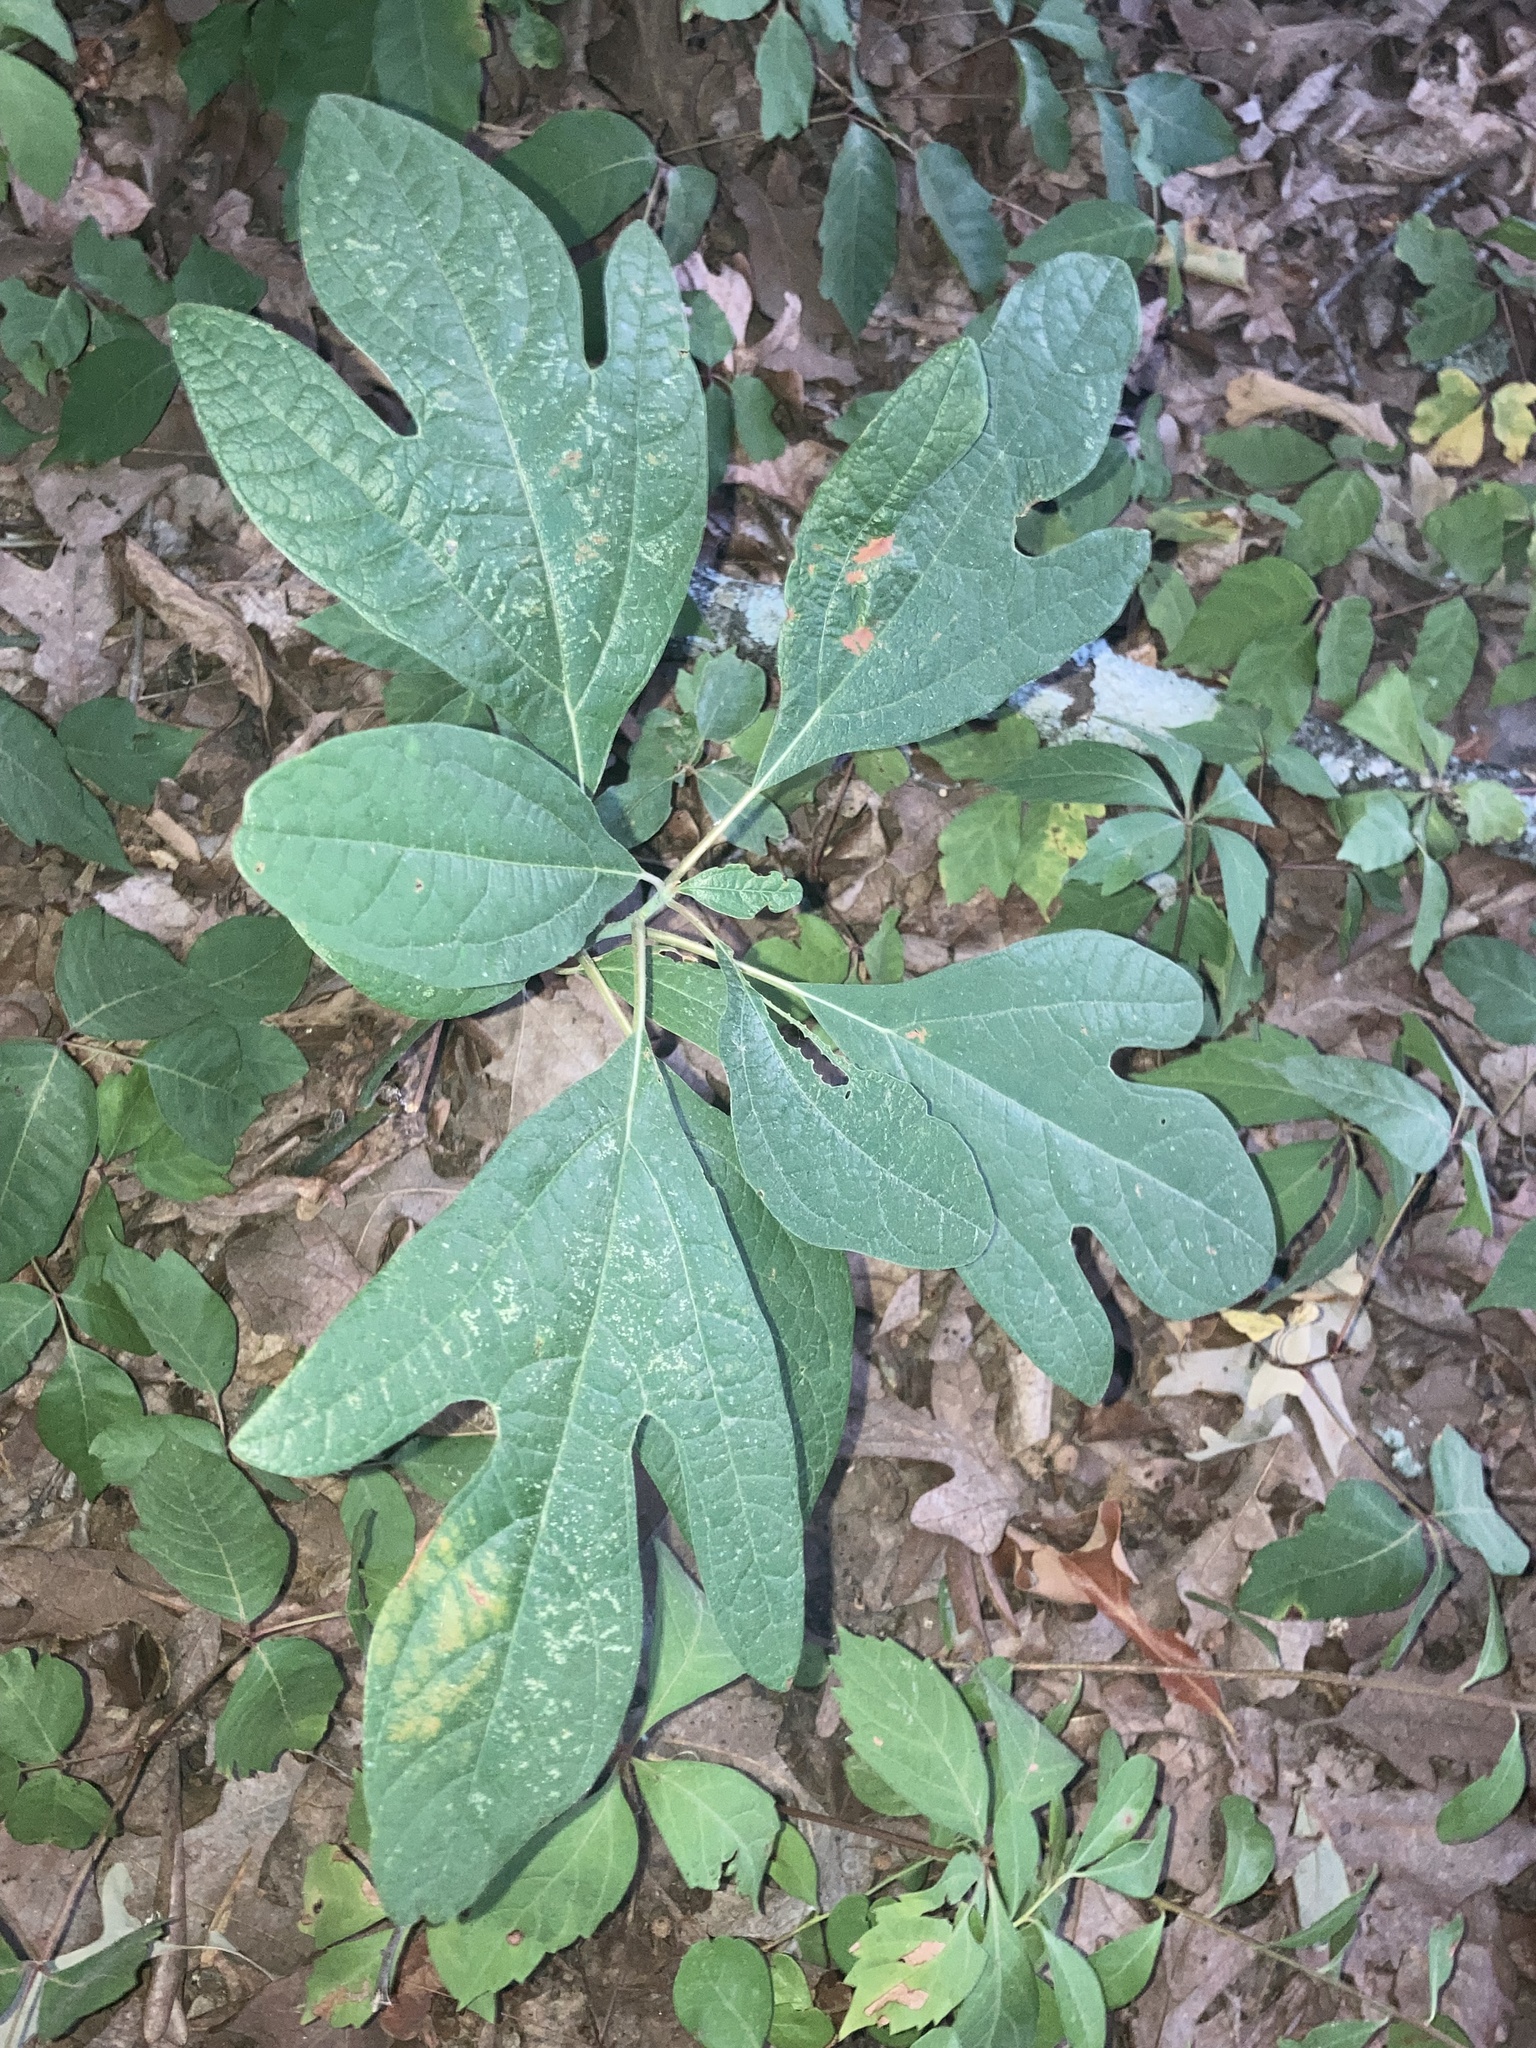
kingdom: Plantae
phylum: Tracheophyta
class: Magnoliopsida
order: Laurales
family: Lauraceae
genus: Sassafras
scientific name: Sassafras albidum
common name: Sassafras
